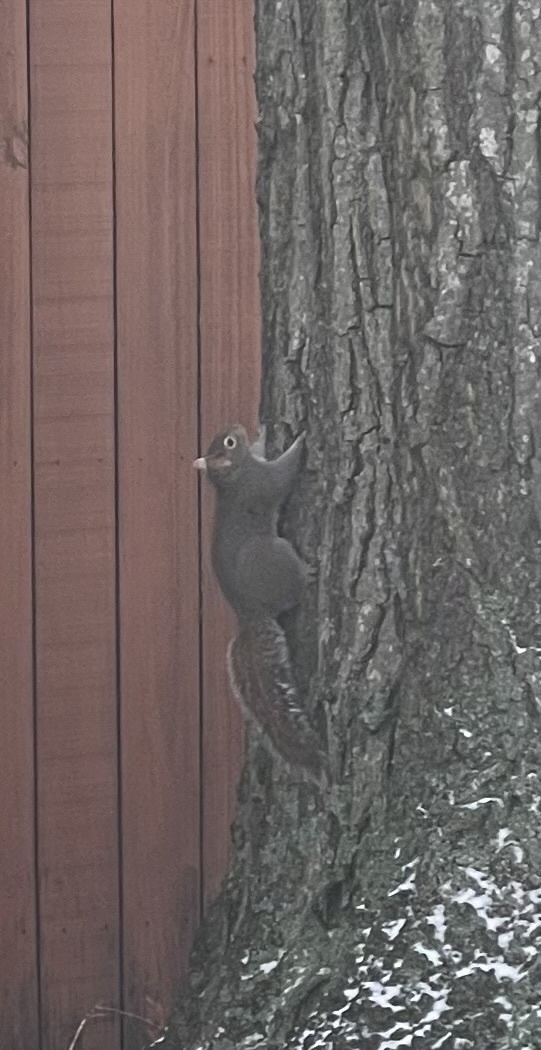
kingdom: Animalia
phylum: Chordata
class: Mammalia
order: Rodentia
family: Sciuridae
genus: Sciurus
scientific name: Sciurus carolinensis
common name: Eastern gray squirrel
